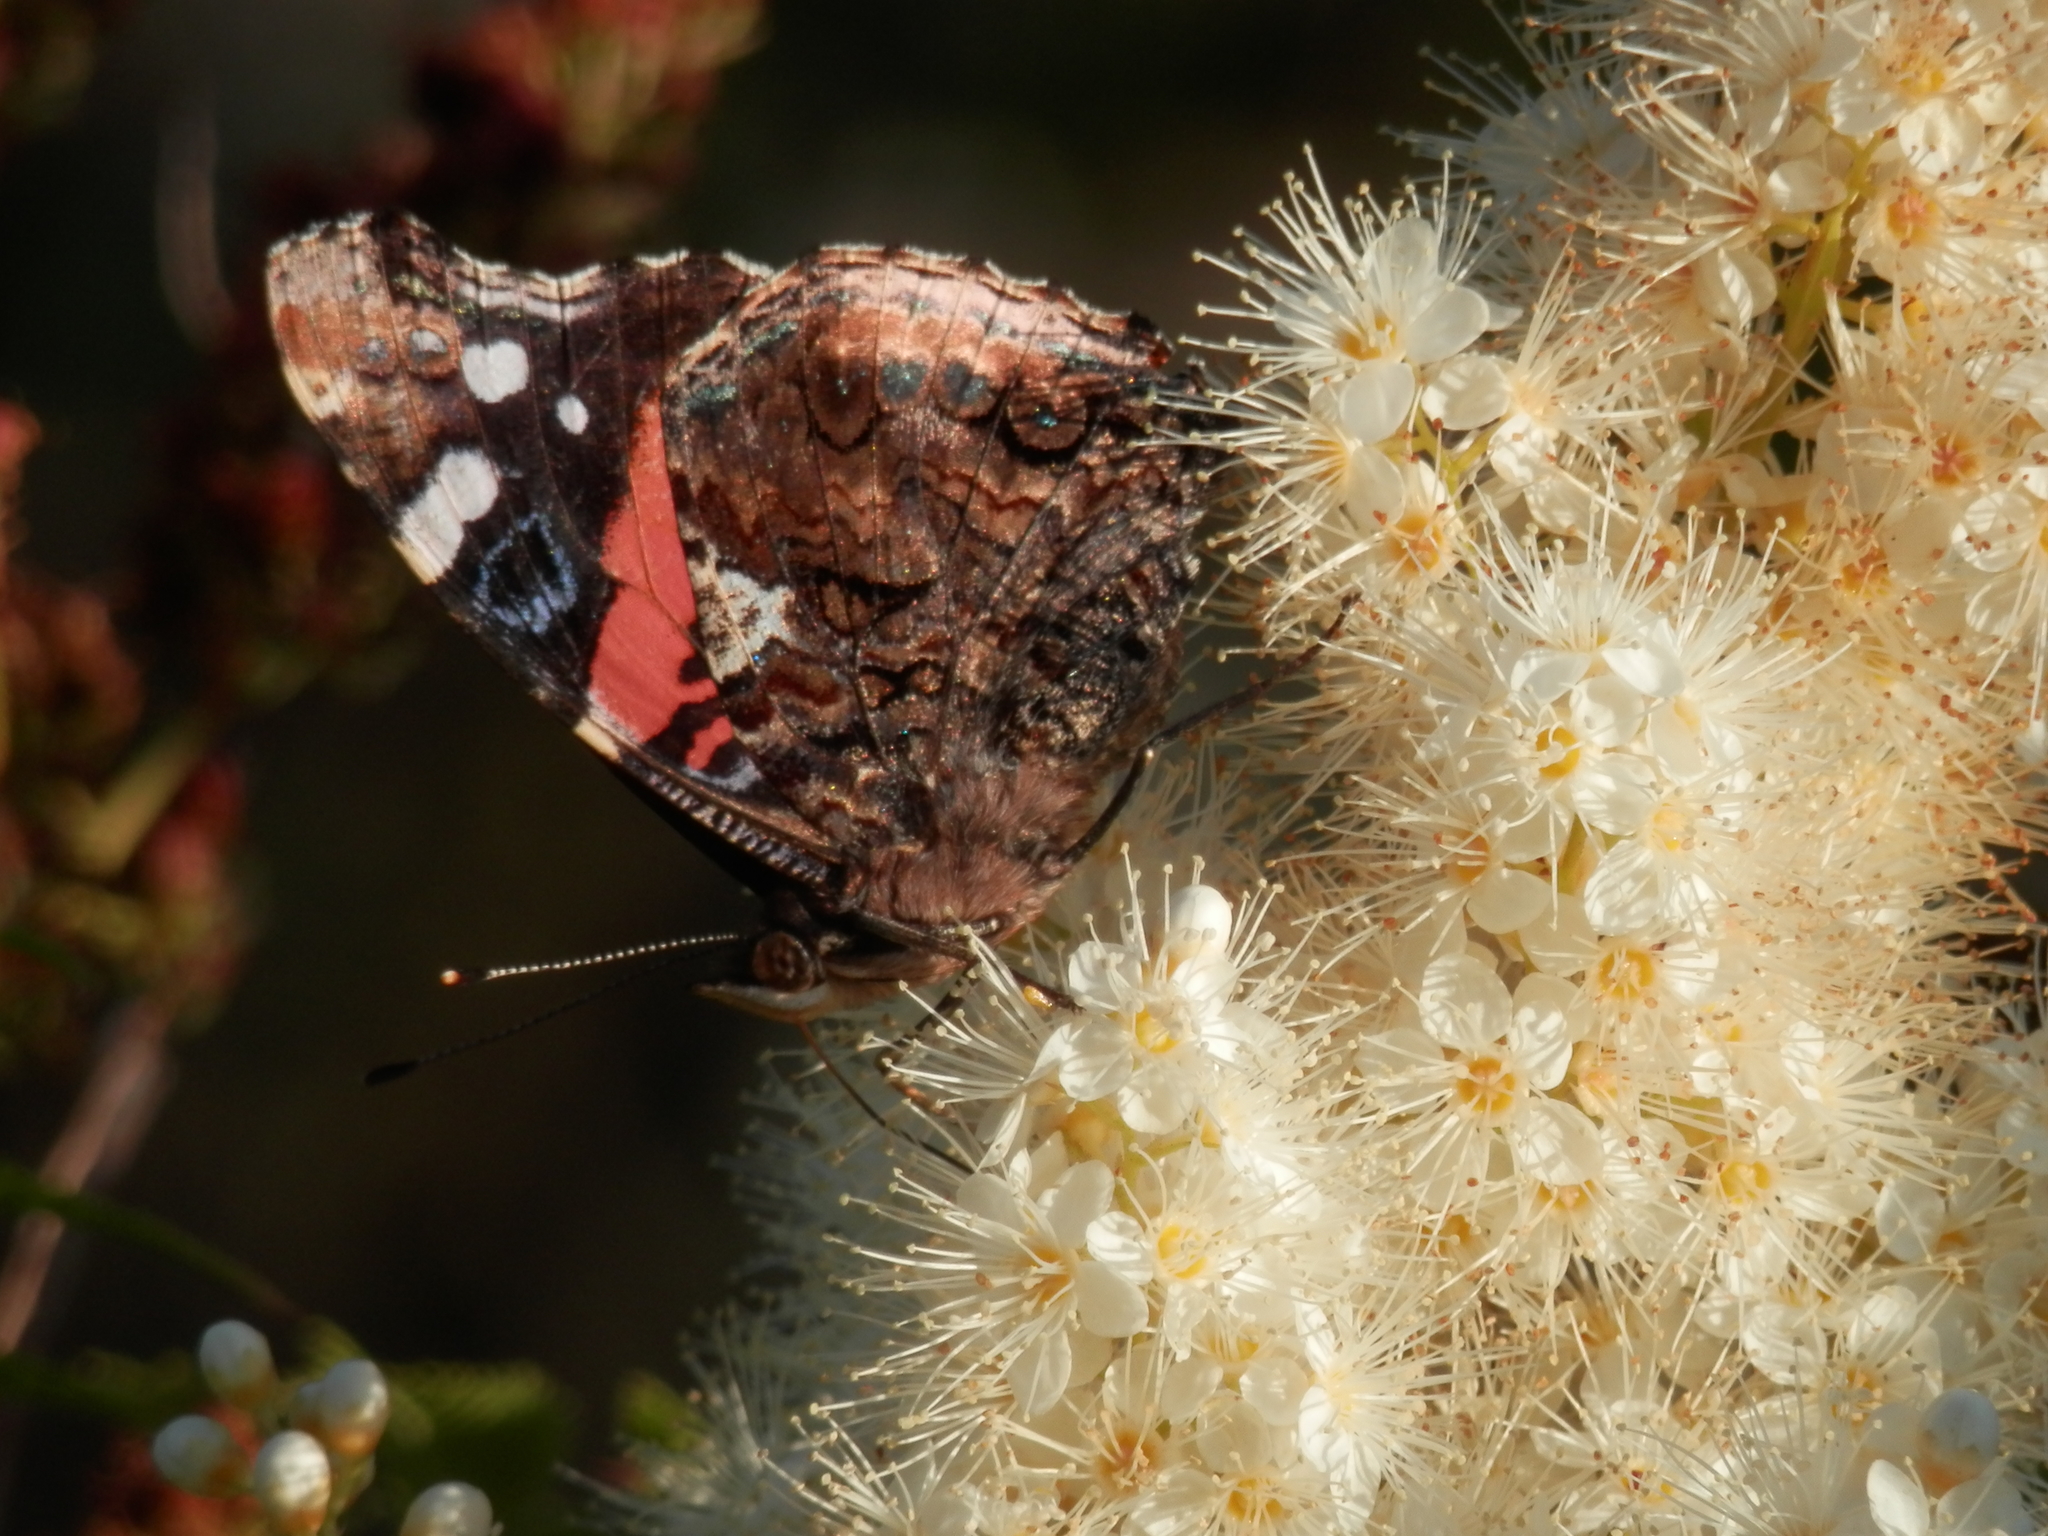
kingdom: Animalia
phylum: Arthropoda
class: Insecta
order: Lepidoptera
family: Nymphalidae
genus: Vanessa
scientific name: Vanessa atalanta
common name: Red admiral
